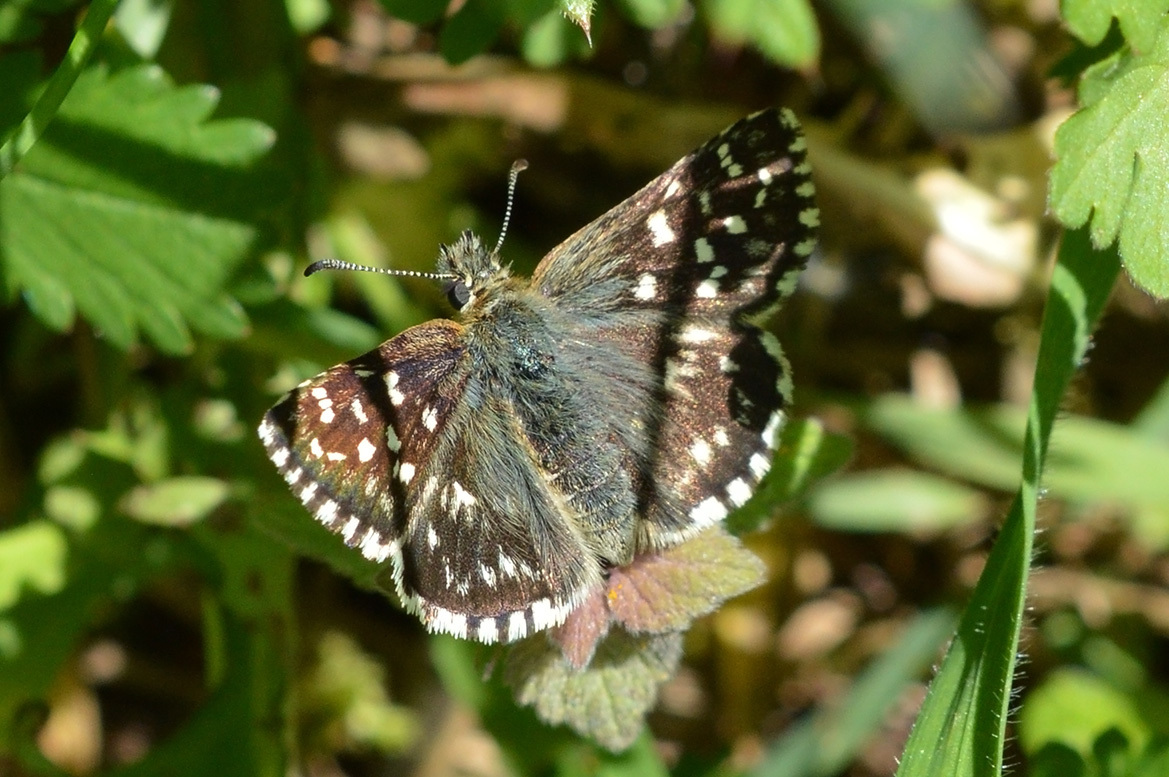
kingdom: Animalia
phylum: Arthropoda
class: Insecta
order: Lepidoptera
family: Hesperiidae
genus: Pyrgus
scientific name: Pyrgus malvae
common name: Grizzled skipper
